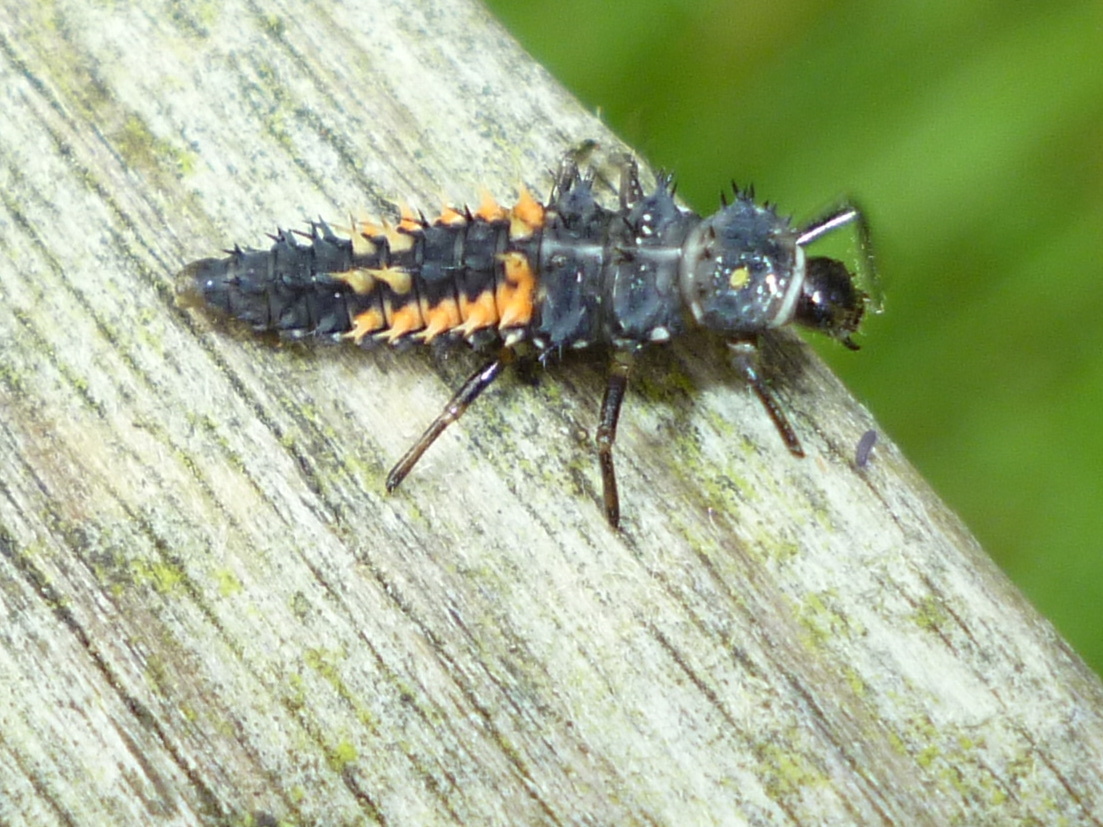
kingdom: Animalia
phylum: Arthropoda
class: Insecta
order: Coleoptera
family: Coccinellidae
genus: Harmonia
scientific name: Harmonia axyridis
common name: Harlequin ladybird
